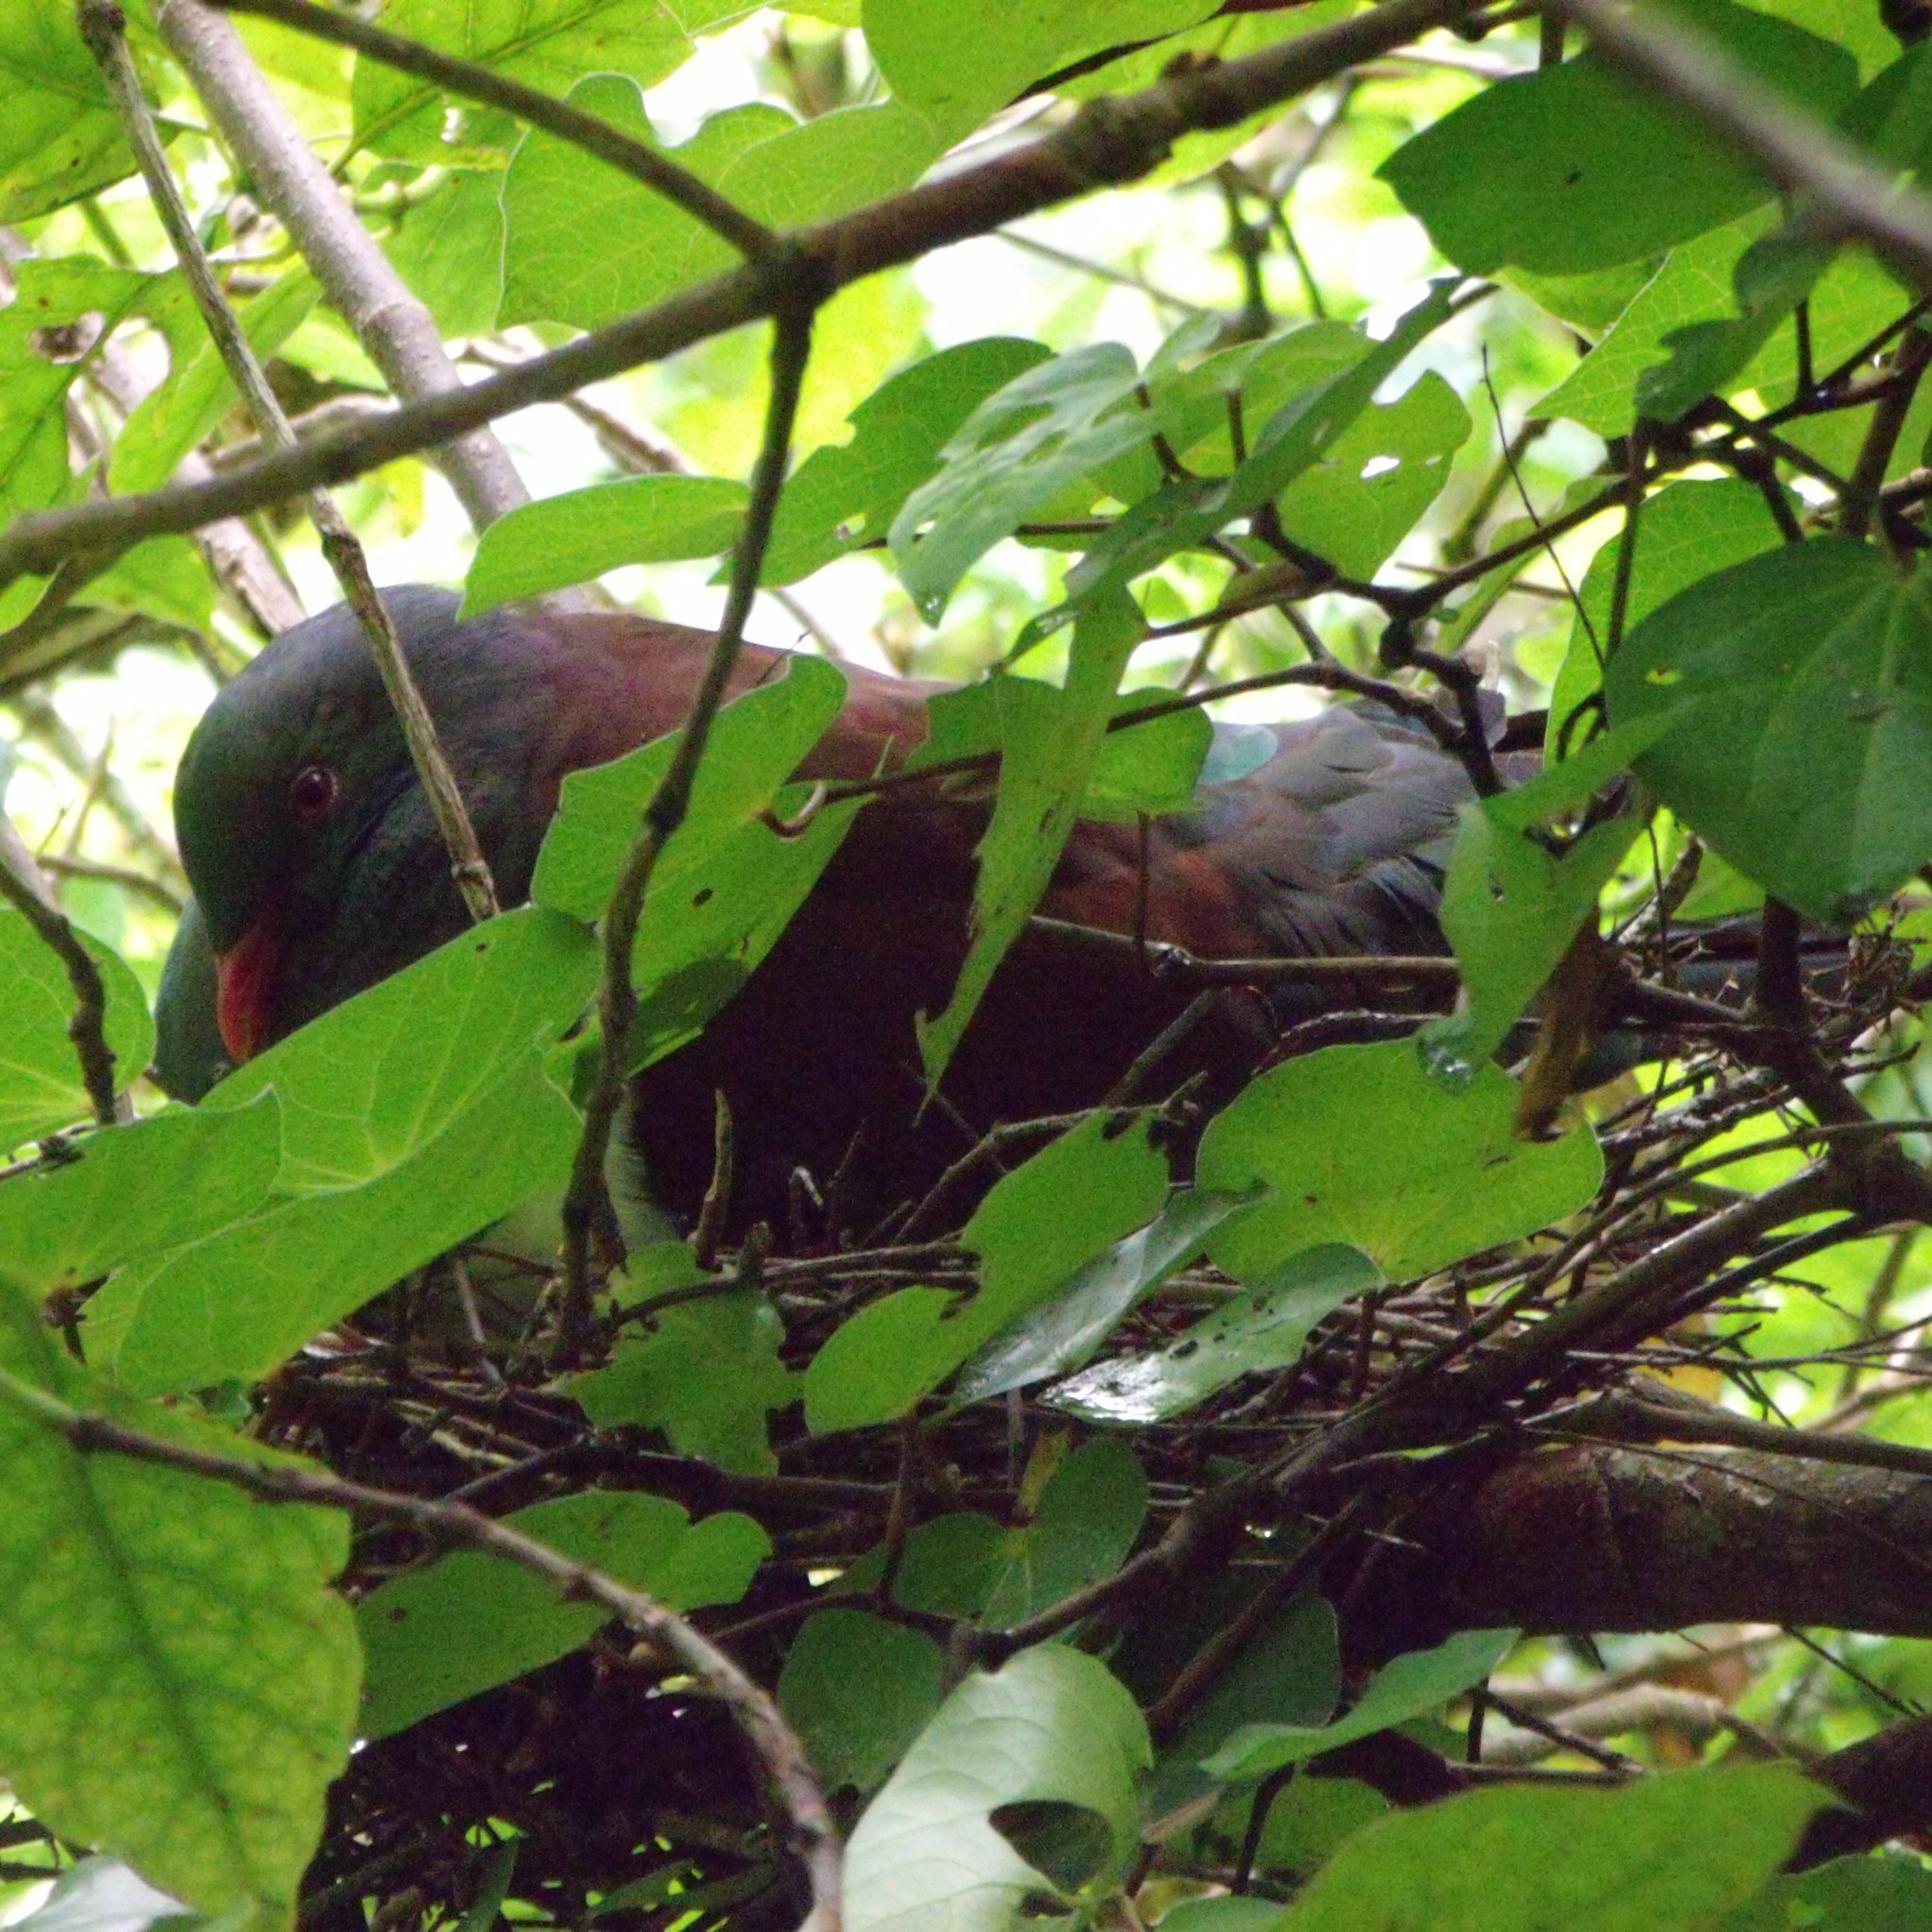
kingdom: Animalia
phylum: Chordata
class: Aves
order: Columbiformes
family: Columbidae
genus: Hemiphaga
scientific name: Hemiphaga novaeseelandiae
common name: New zealand pigeon
